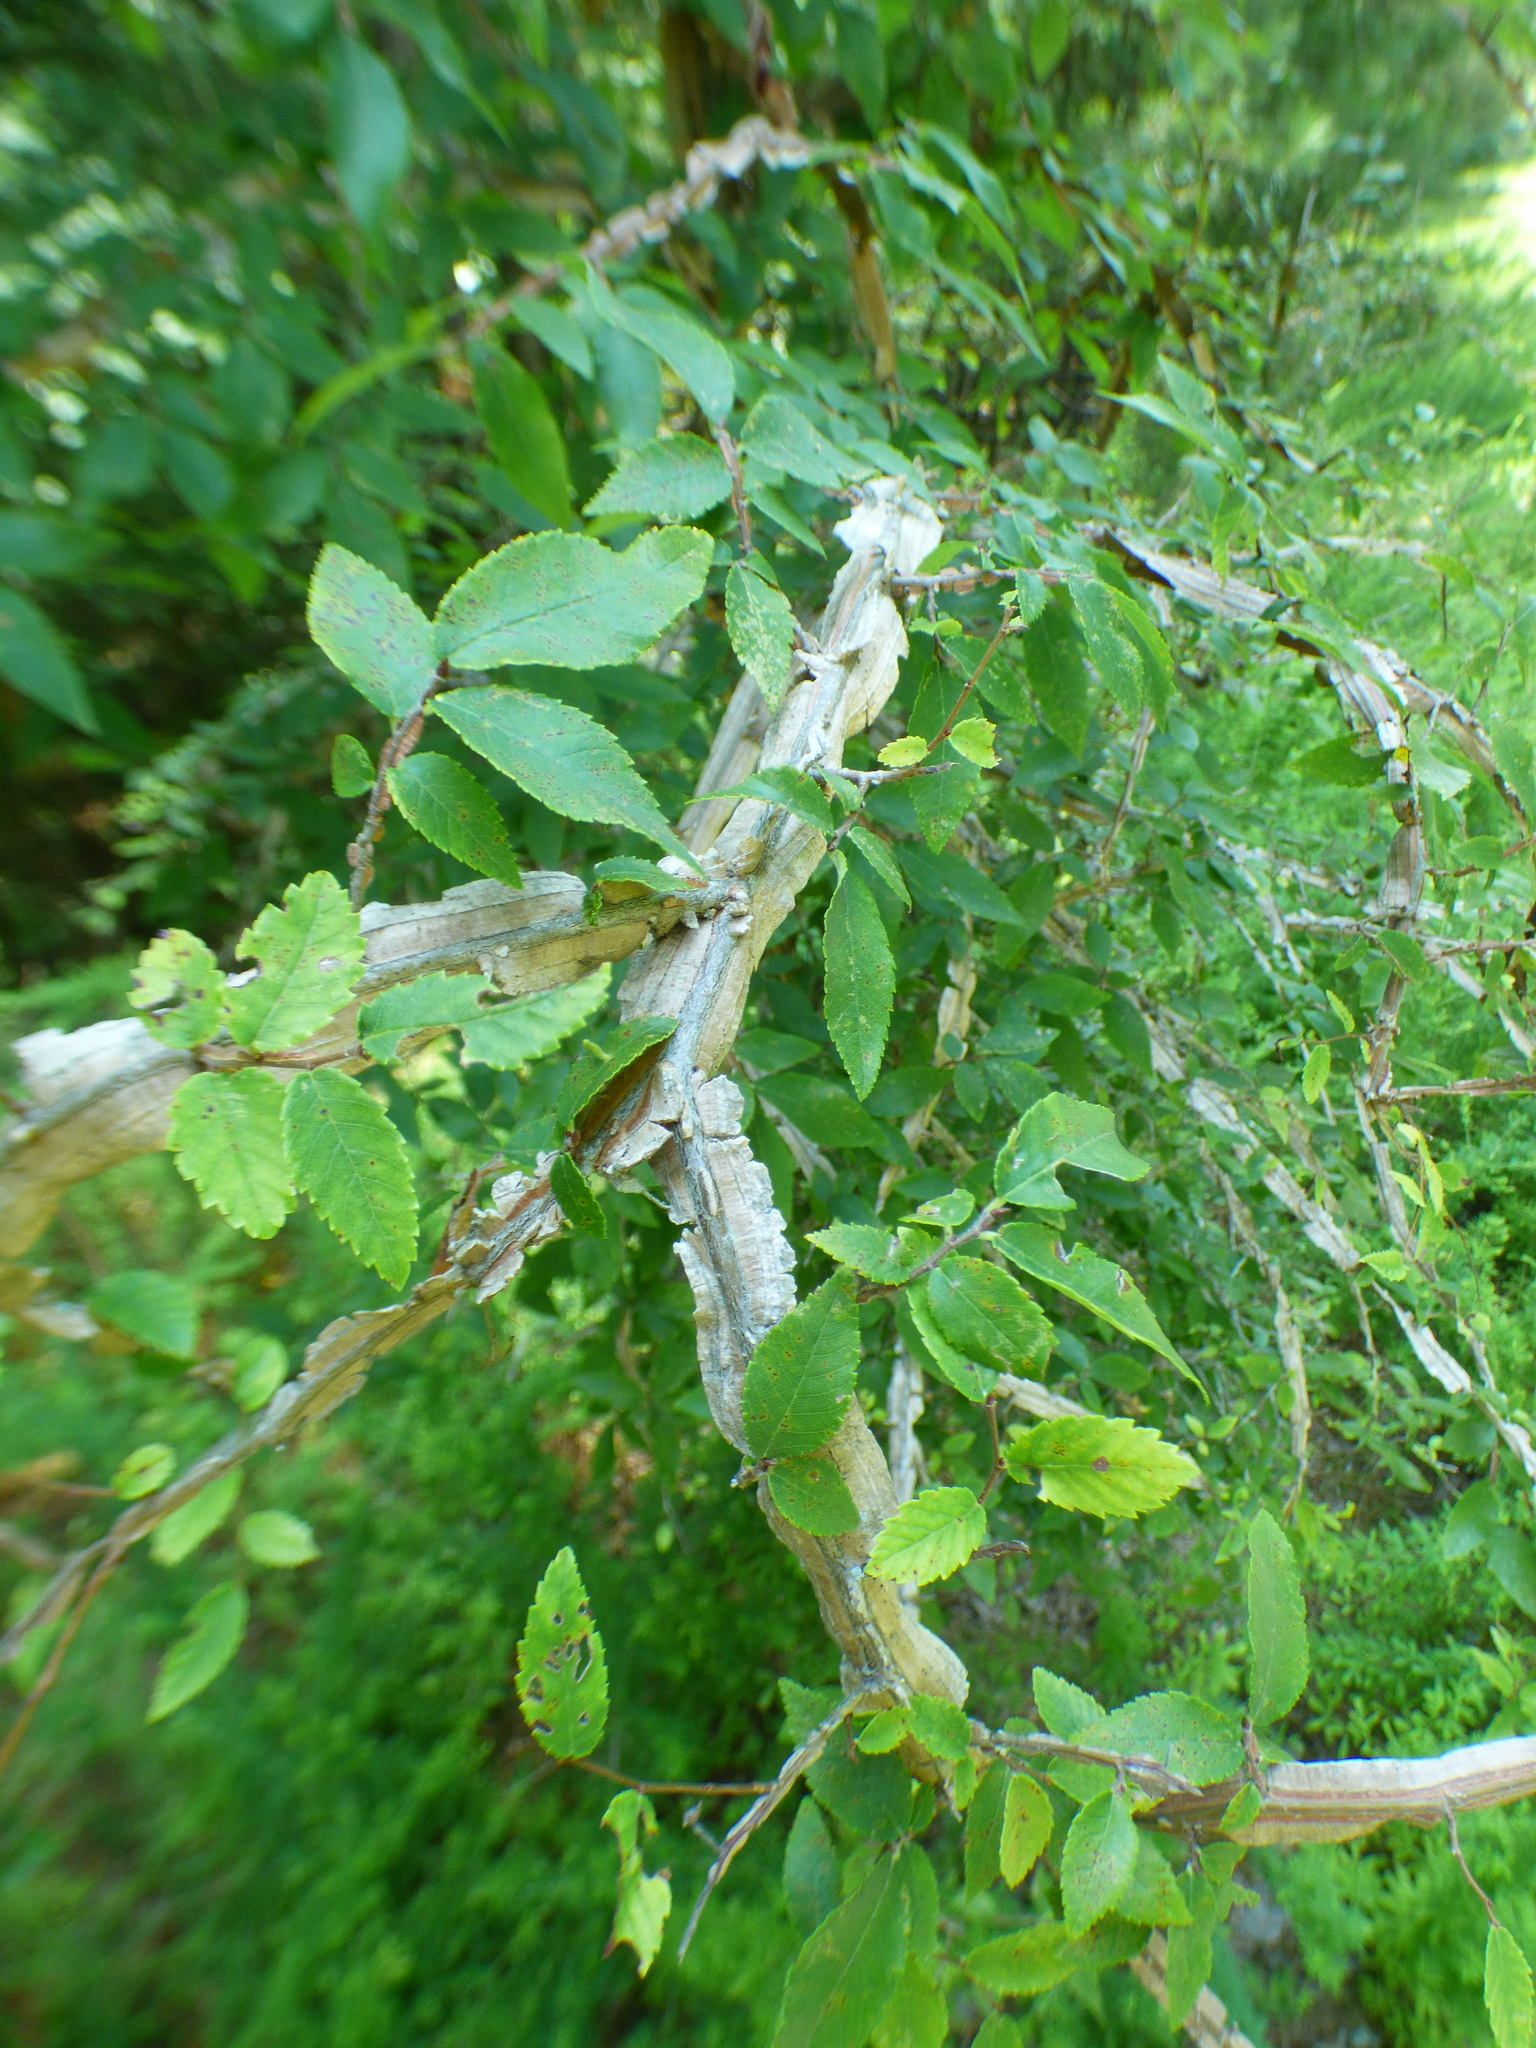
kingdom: Plantae
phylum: Tracheophyta
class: Magnoliopsida
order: Rosales
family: Ulmaceae
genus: Ulmus
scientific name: Ulmus alata
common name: Winged elm
